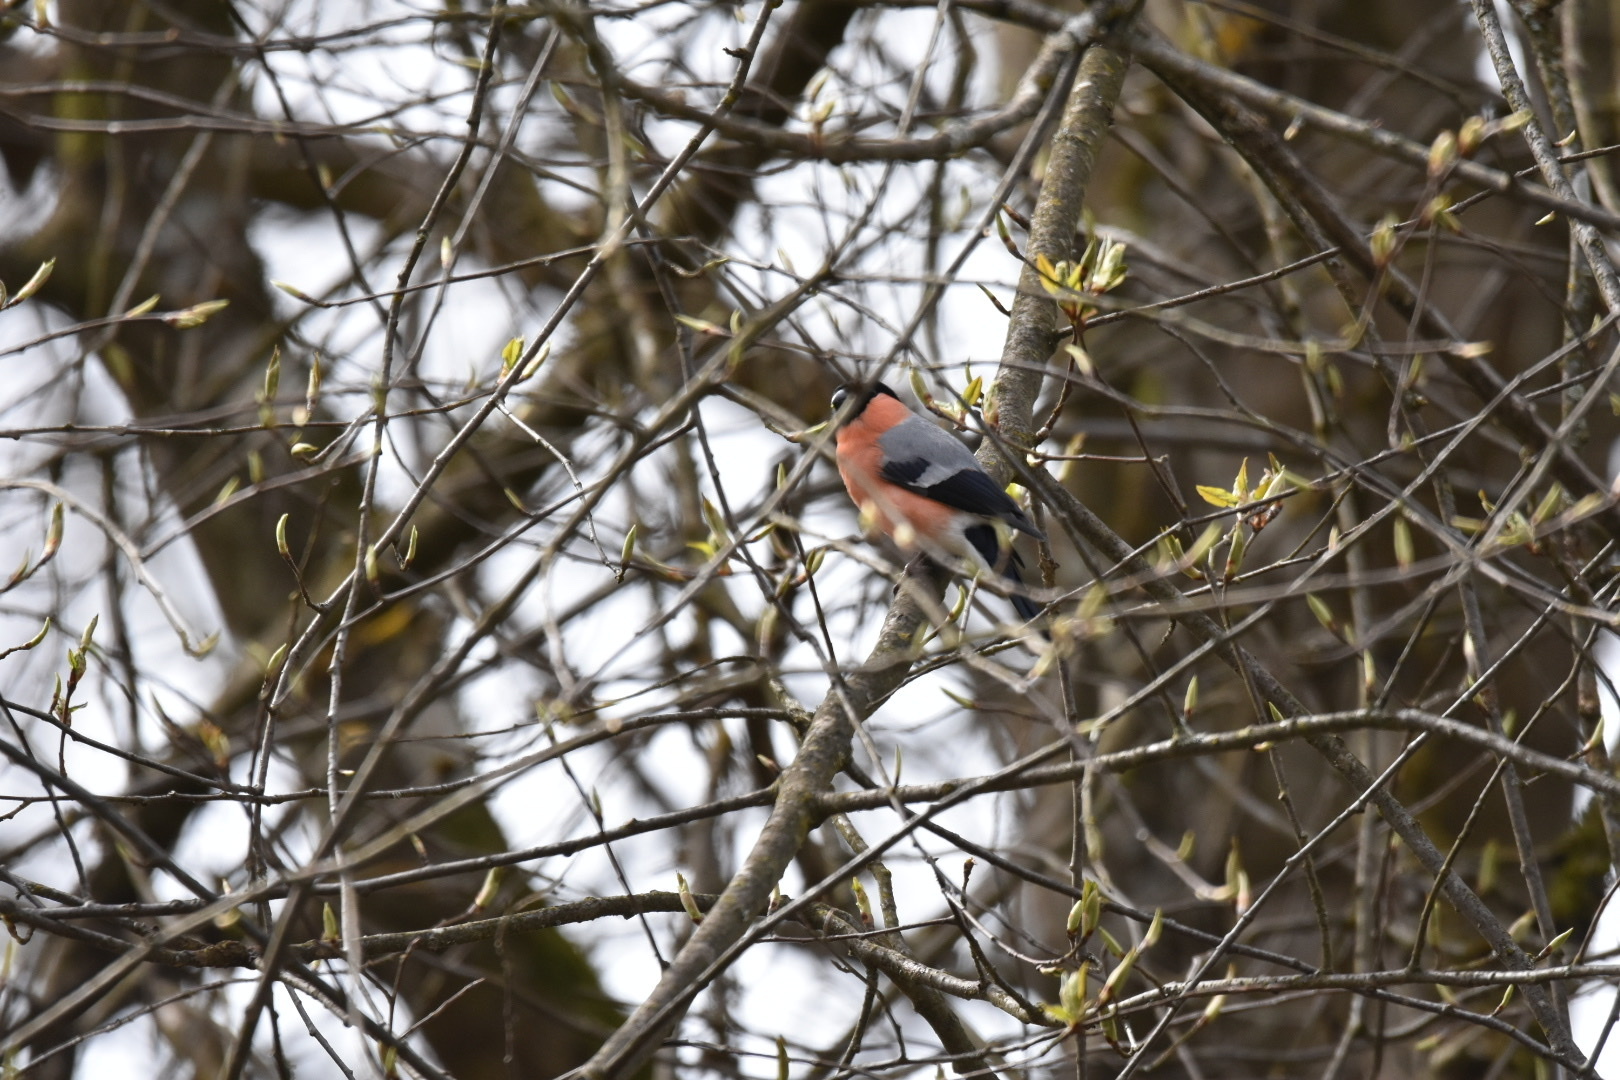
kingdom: Animalia
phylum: Chordata
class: Aves
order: Passeriformes
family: Fringillidae
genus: Pyrrhula
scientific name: Pyrrhula pyrrhula
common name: Eurasian bullfinch
